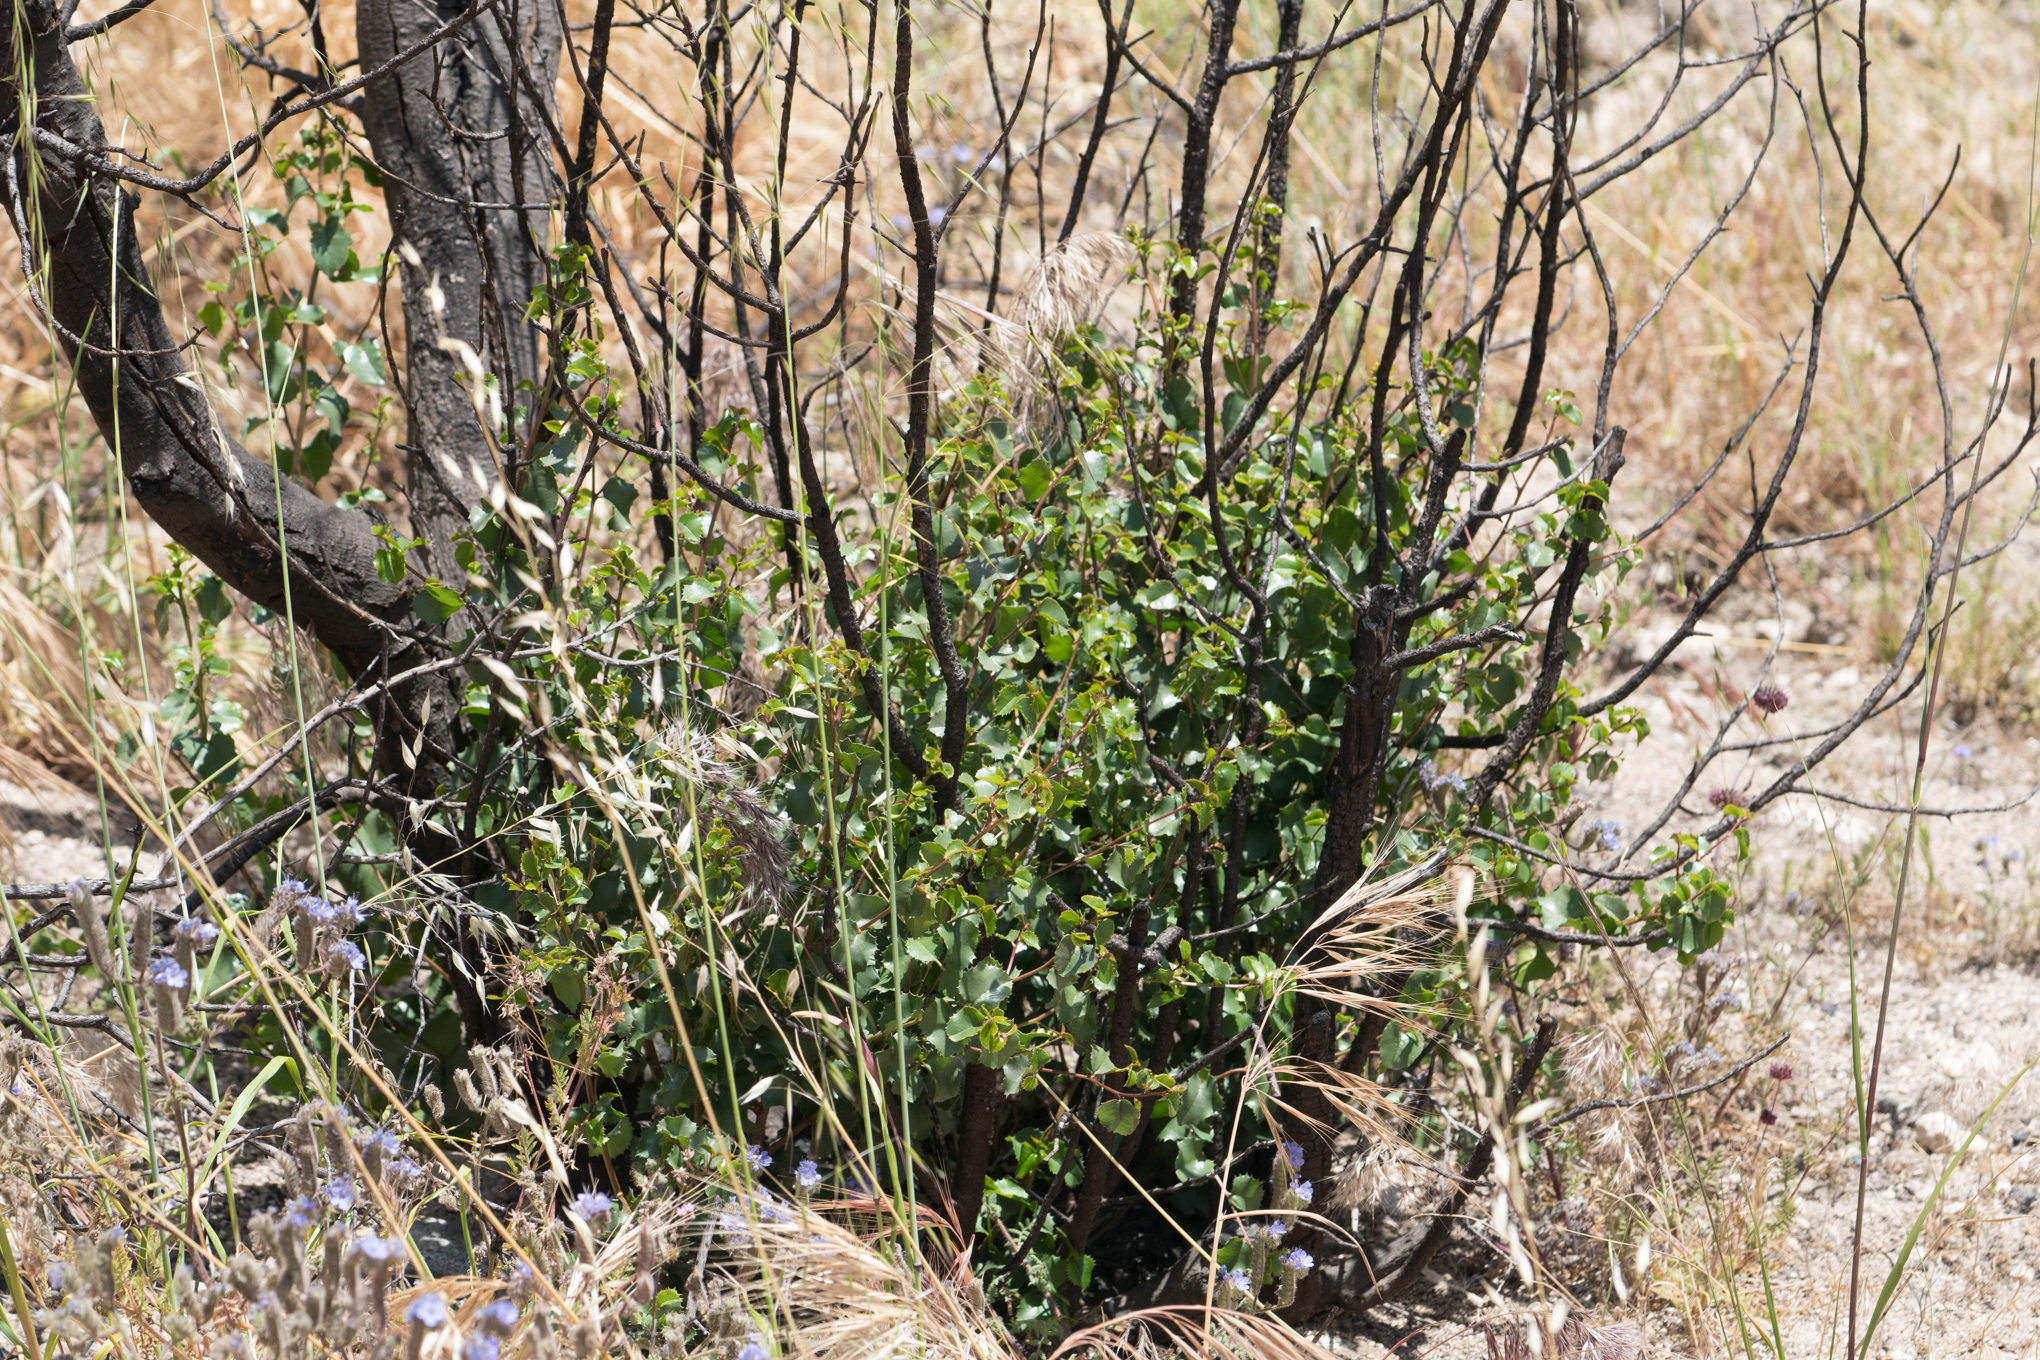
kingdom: Plantae
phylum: Tracheophyta
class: Magnoliopsida
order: Rosales
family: Rosaceae
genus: Prunus
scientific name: Prunus ilicifolia
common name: Hollyleaf cherry
